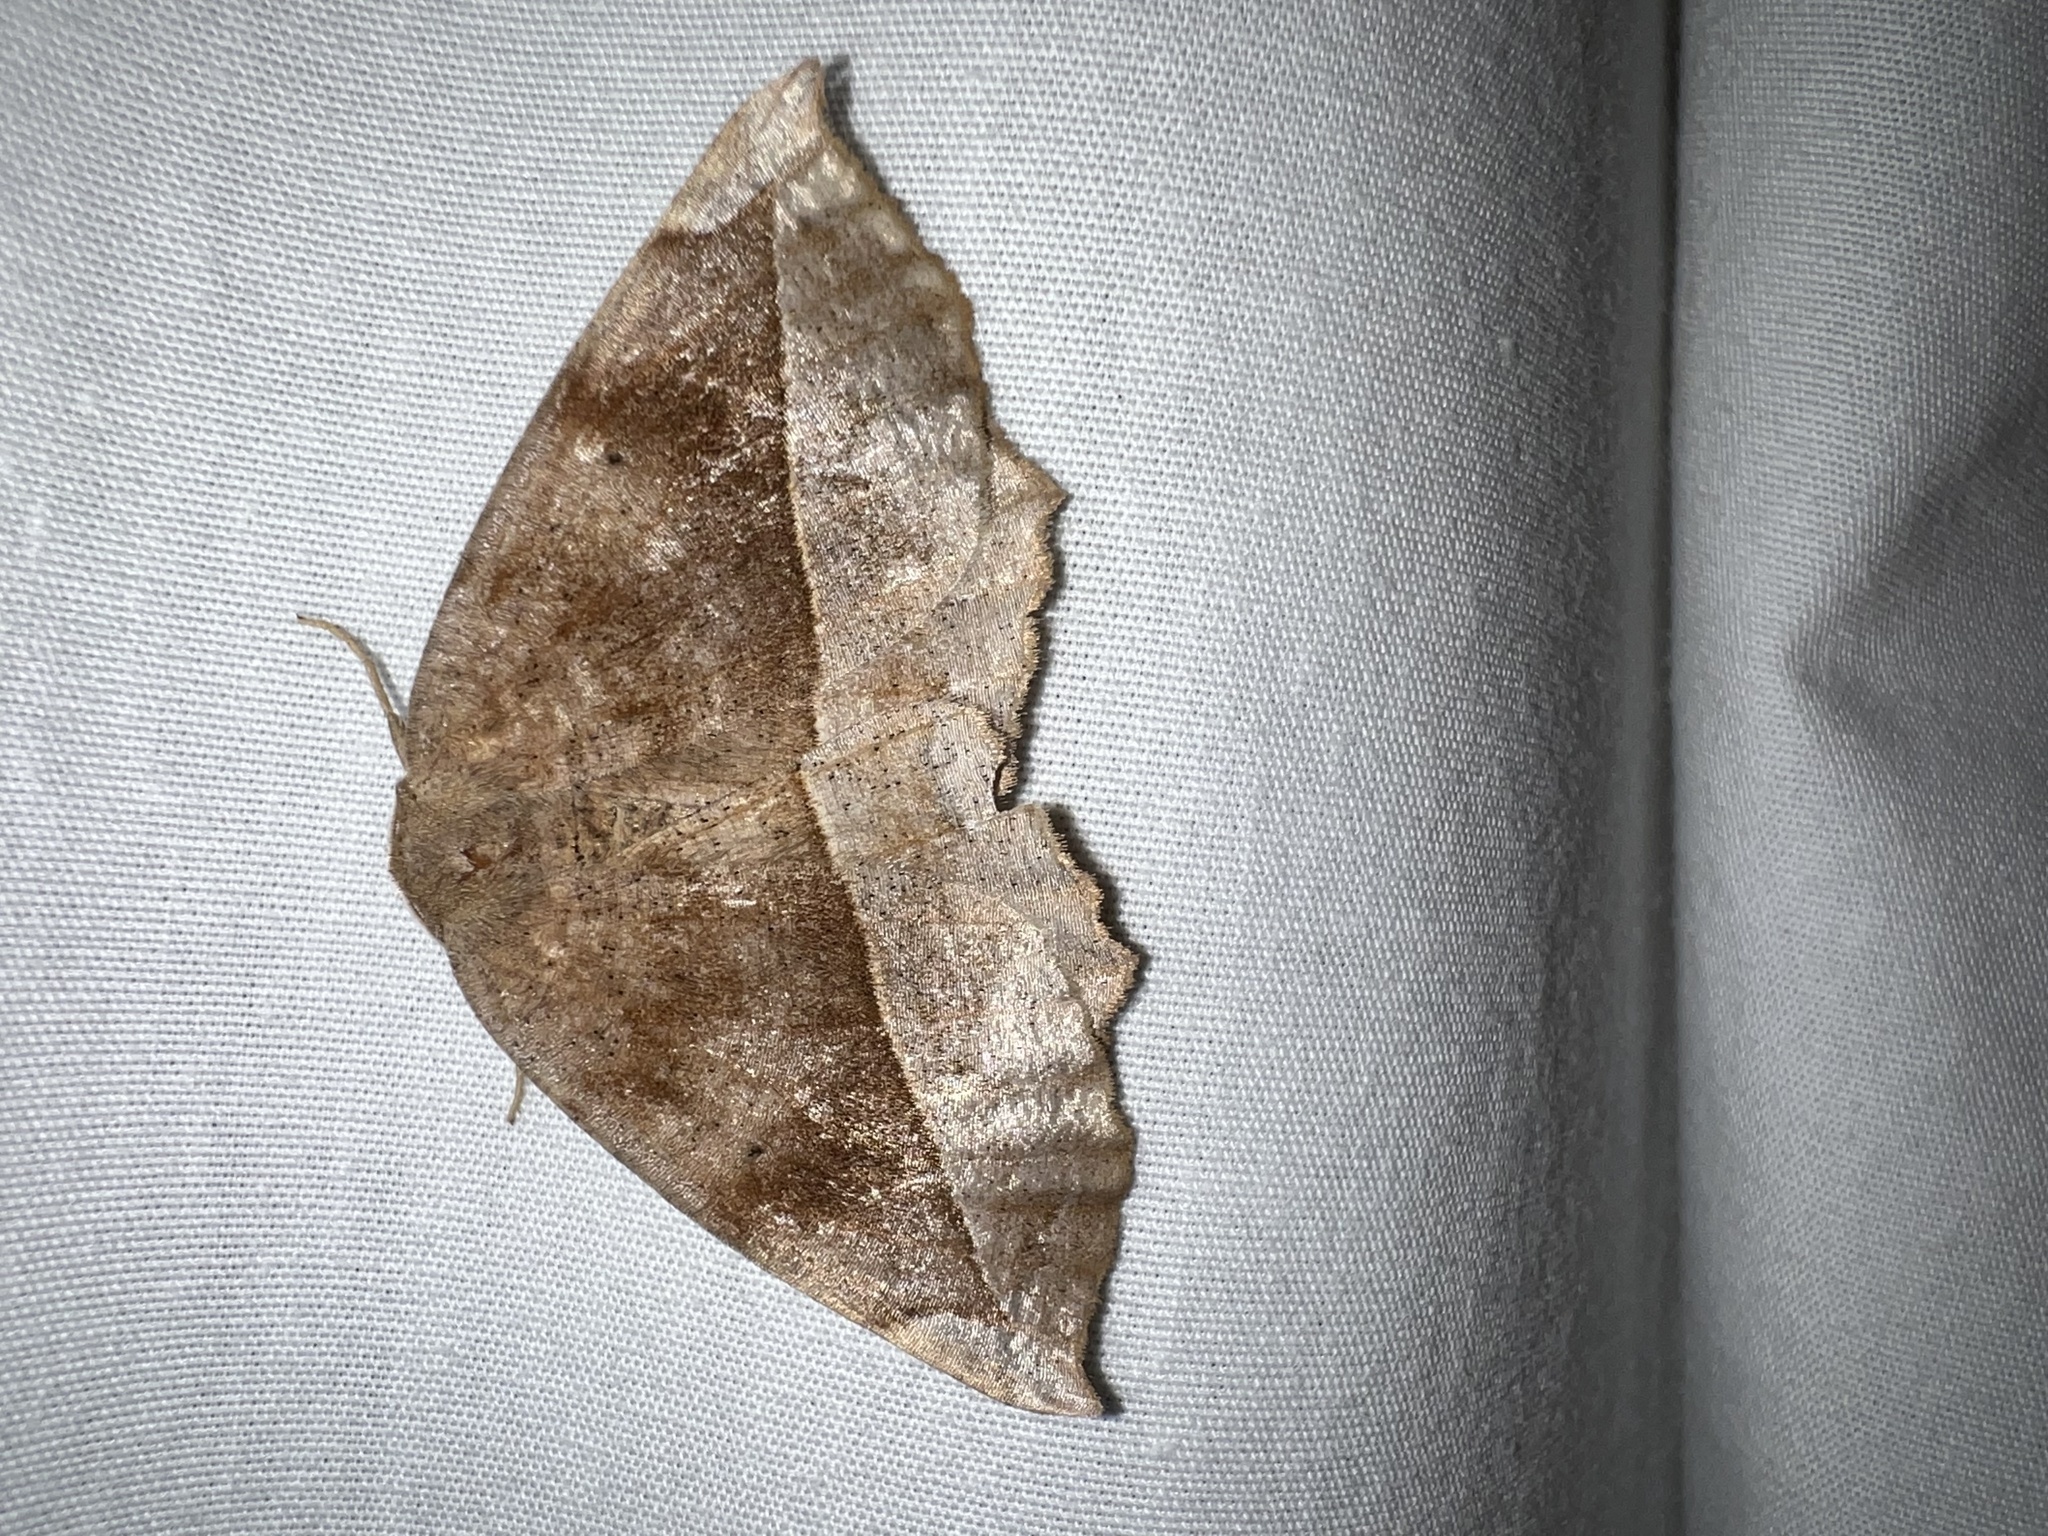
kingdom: Animalia
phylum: Arthropoda
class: Insecta
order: Lepidoptera
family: Geometridae
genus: Eutrapela
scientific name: Eutrapela clemataria
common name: Curved-toothed geometer
